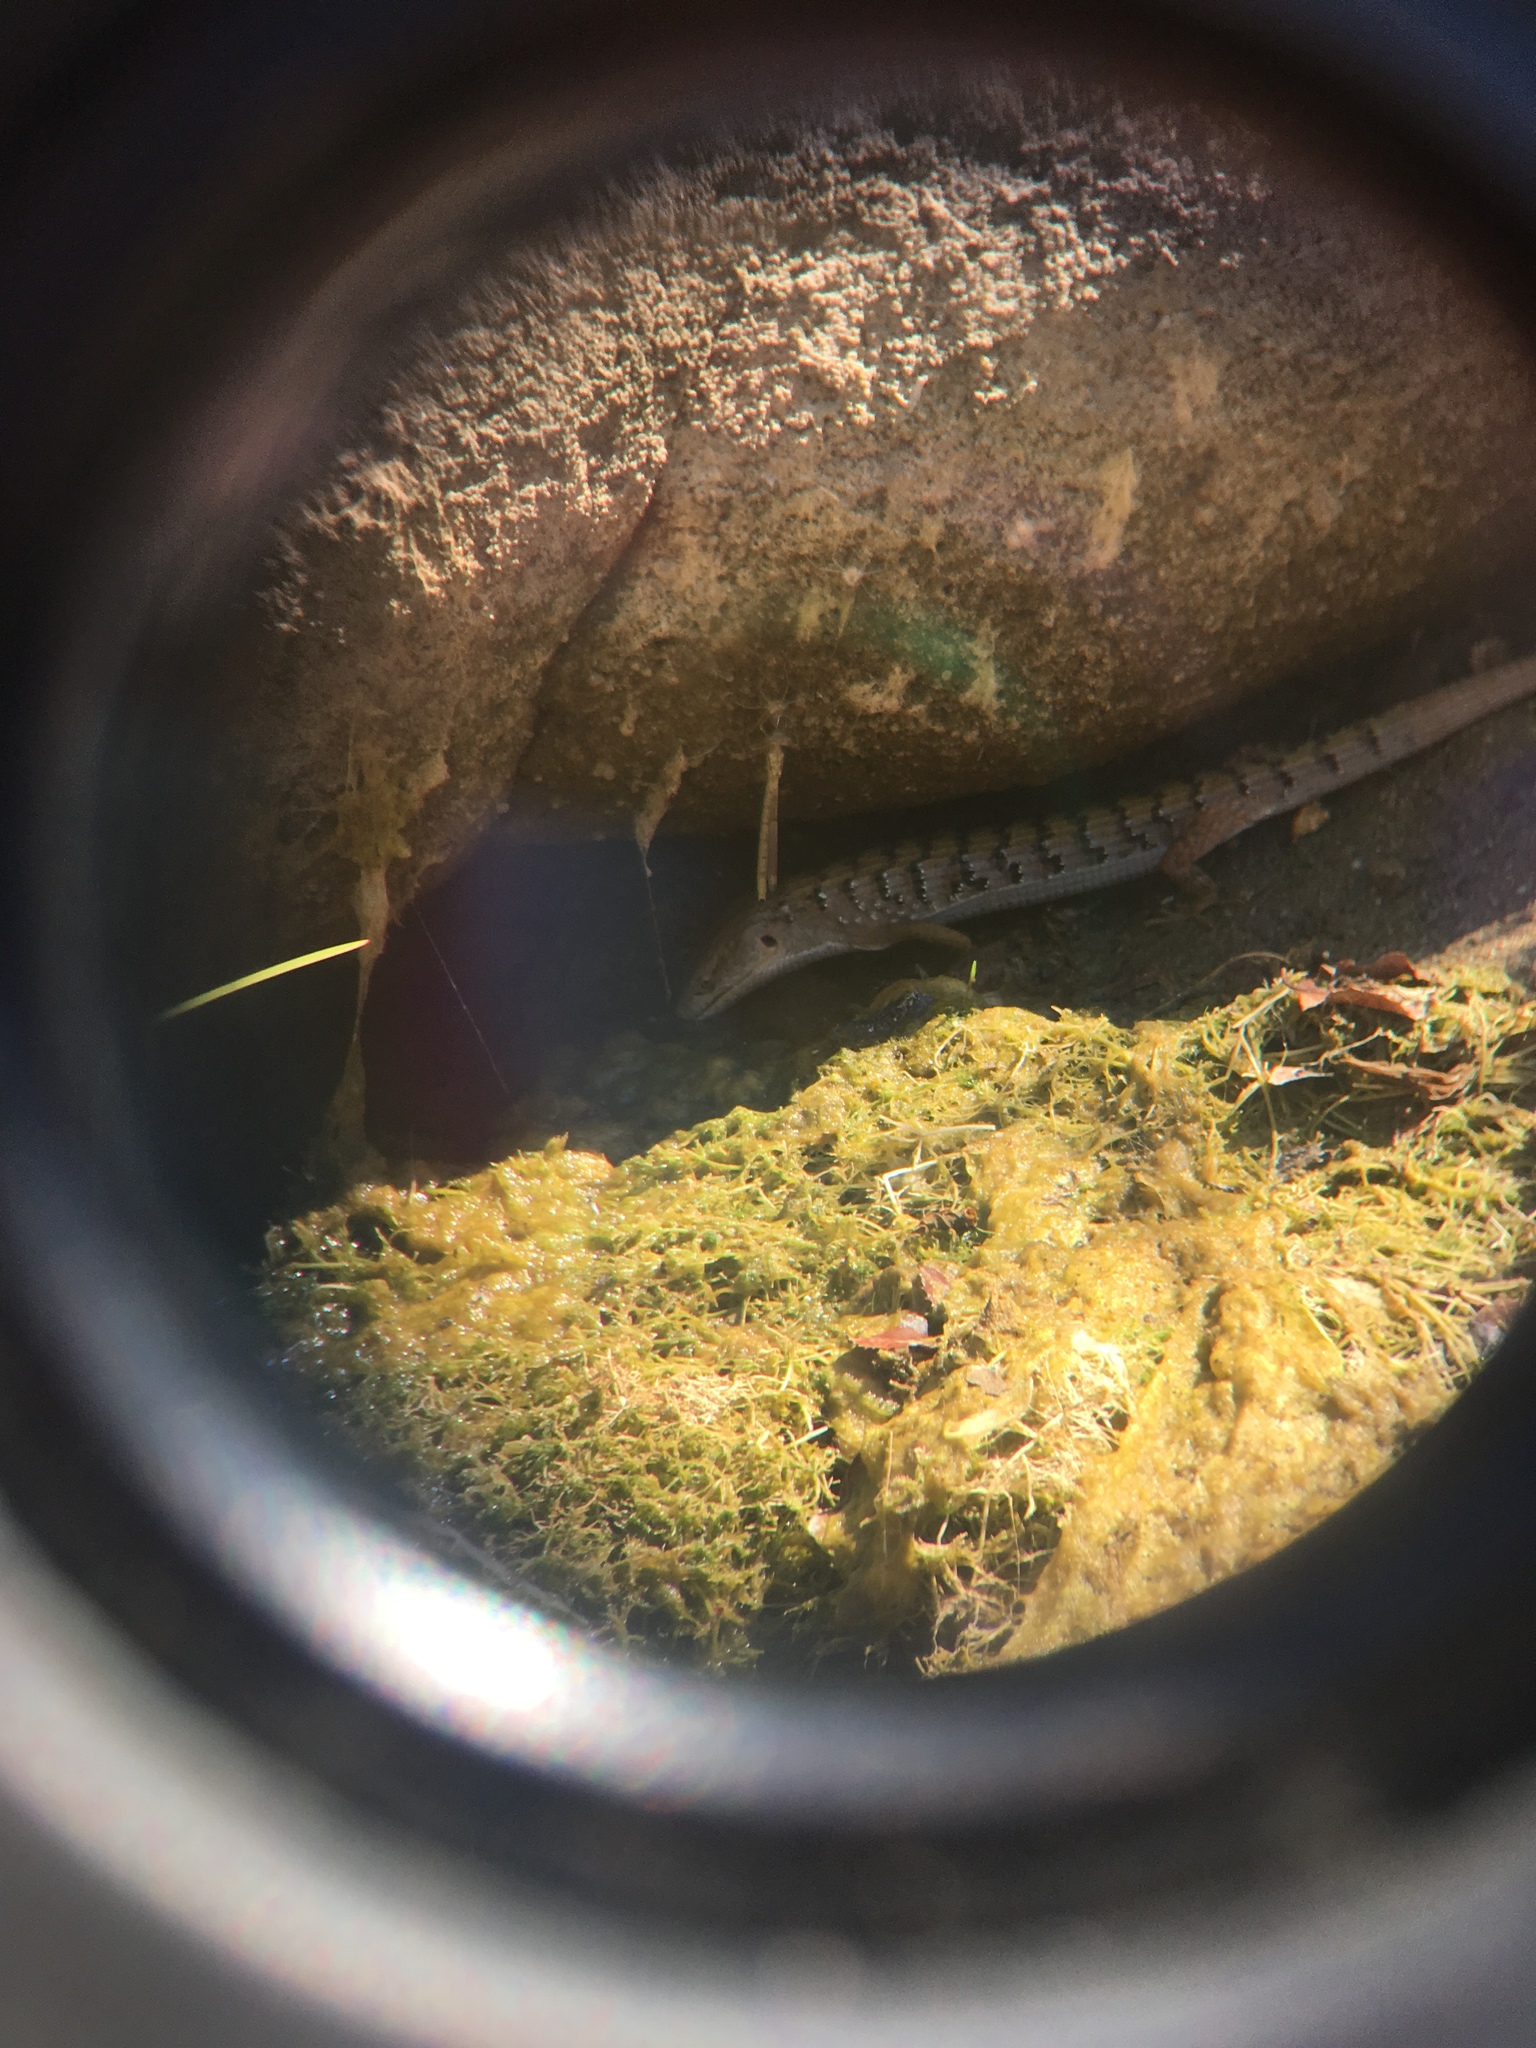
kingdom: Animalia
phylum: Chordata
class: Squamata
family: Anguidae
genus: Elgaria
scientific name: Elgaria multicarinata
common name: Southern alligator lizard
